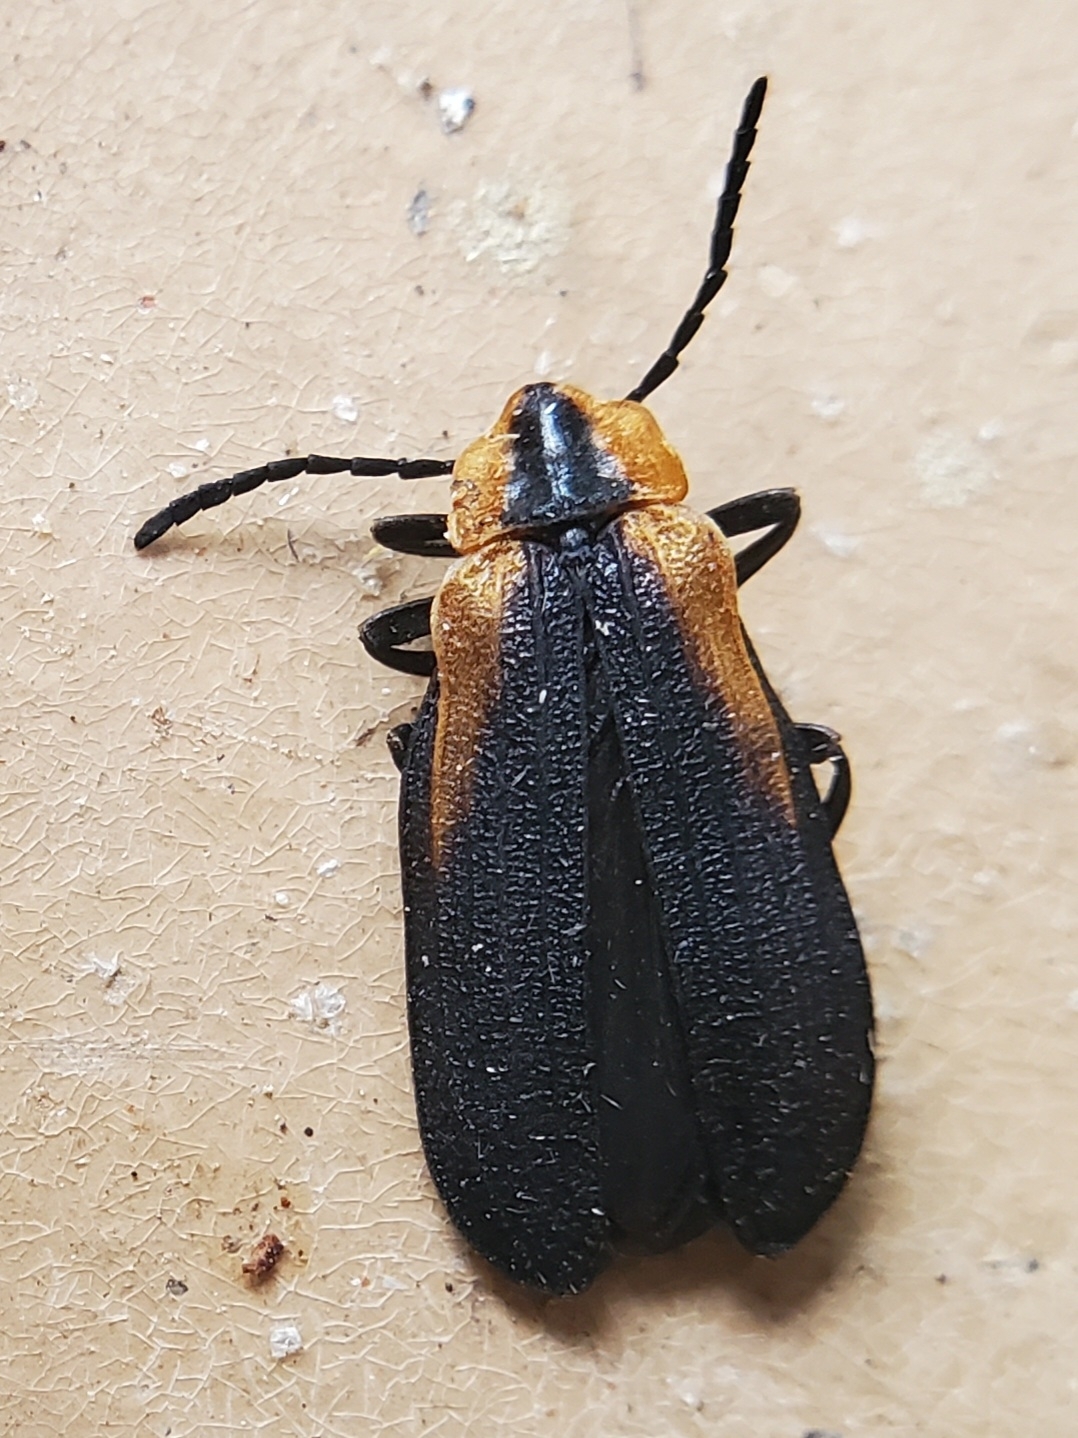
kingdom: Animalia
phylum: Arthropoda
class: Insecta
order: Coleoptera
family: Lycidae
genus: Lyconotus
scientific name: Lyconotus lateralis
